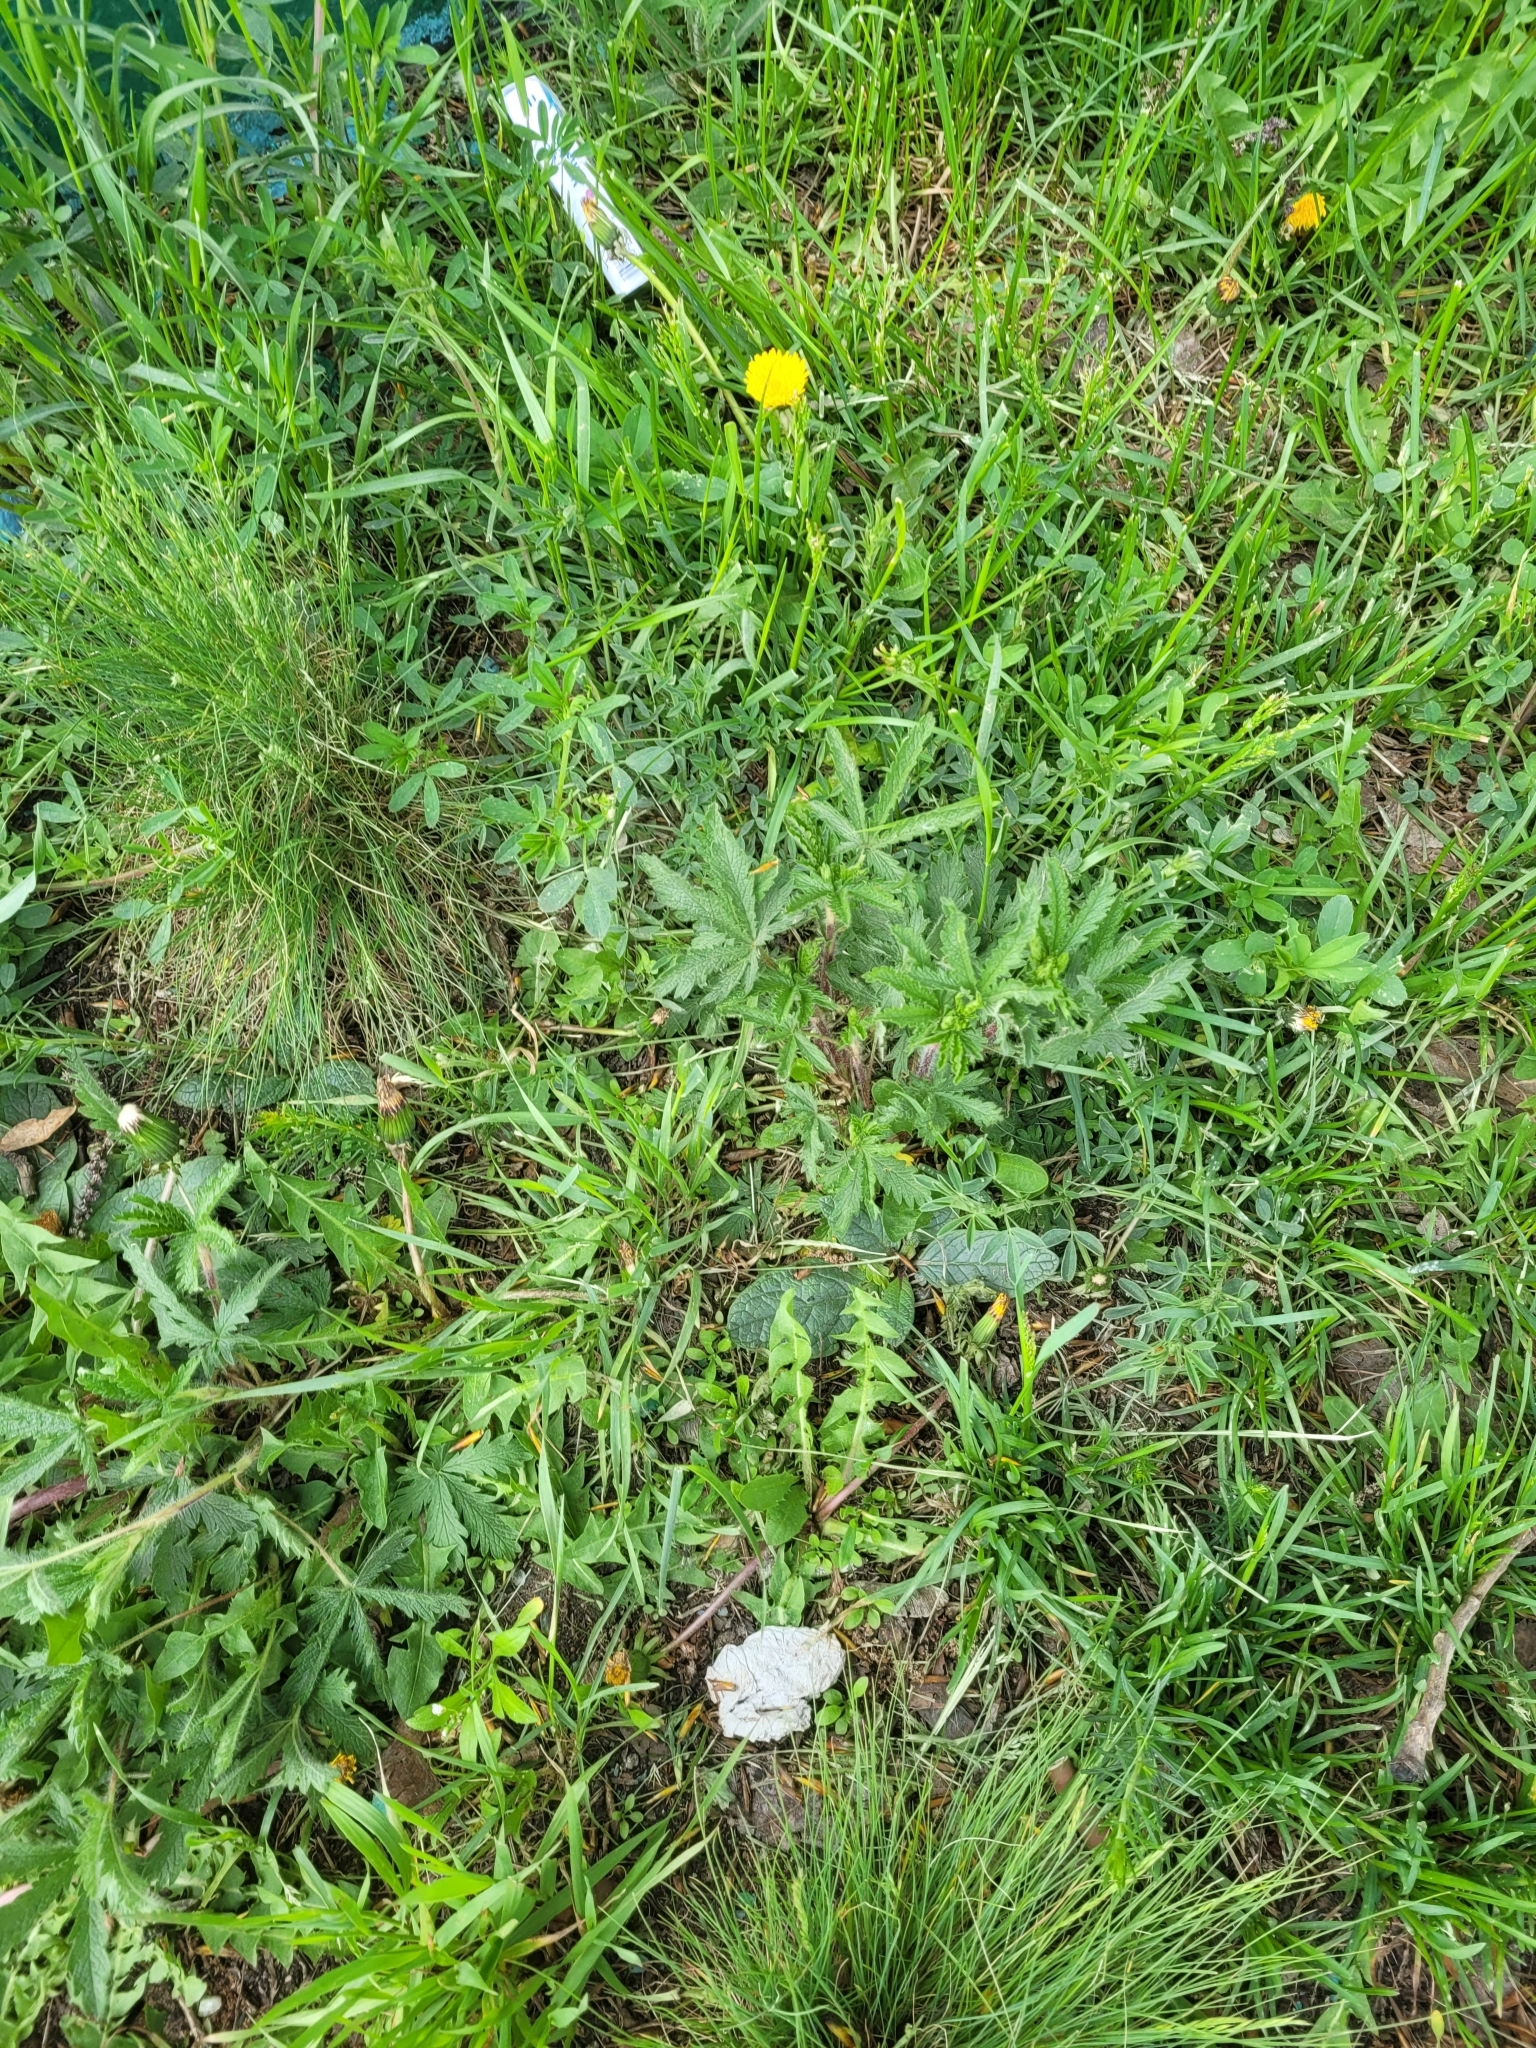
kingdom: Plantae
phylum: Tracheophyta
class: Magnoliopsida
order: Rosales
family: Rosaceae
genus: Potentilla
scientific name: Potentilla recta
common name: Sulphur cinquefoil
